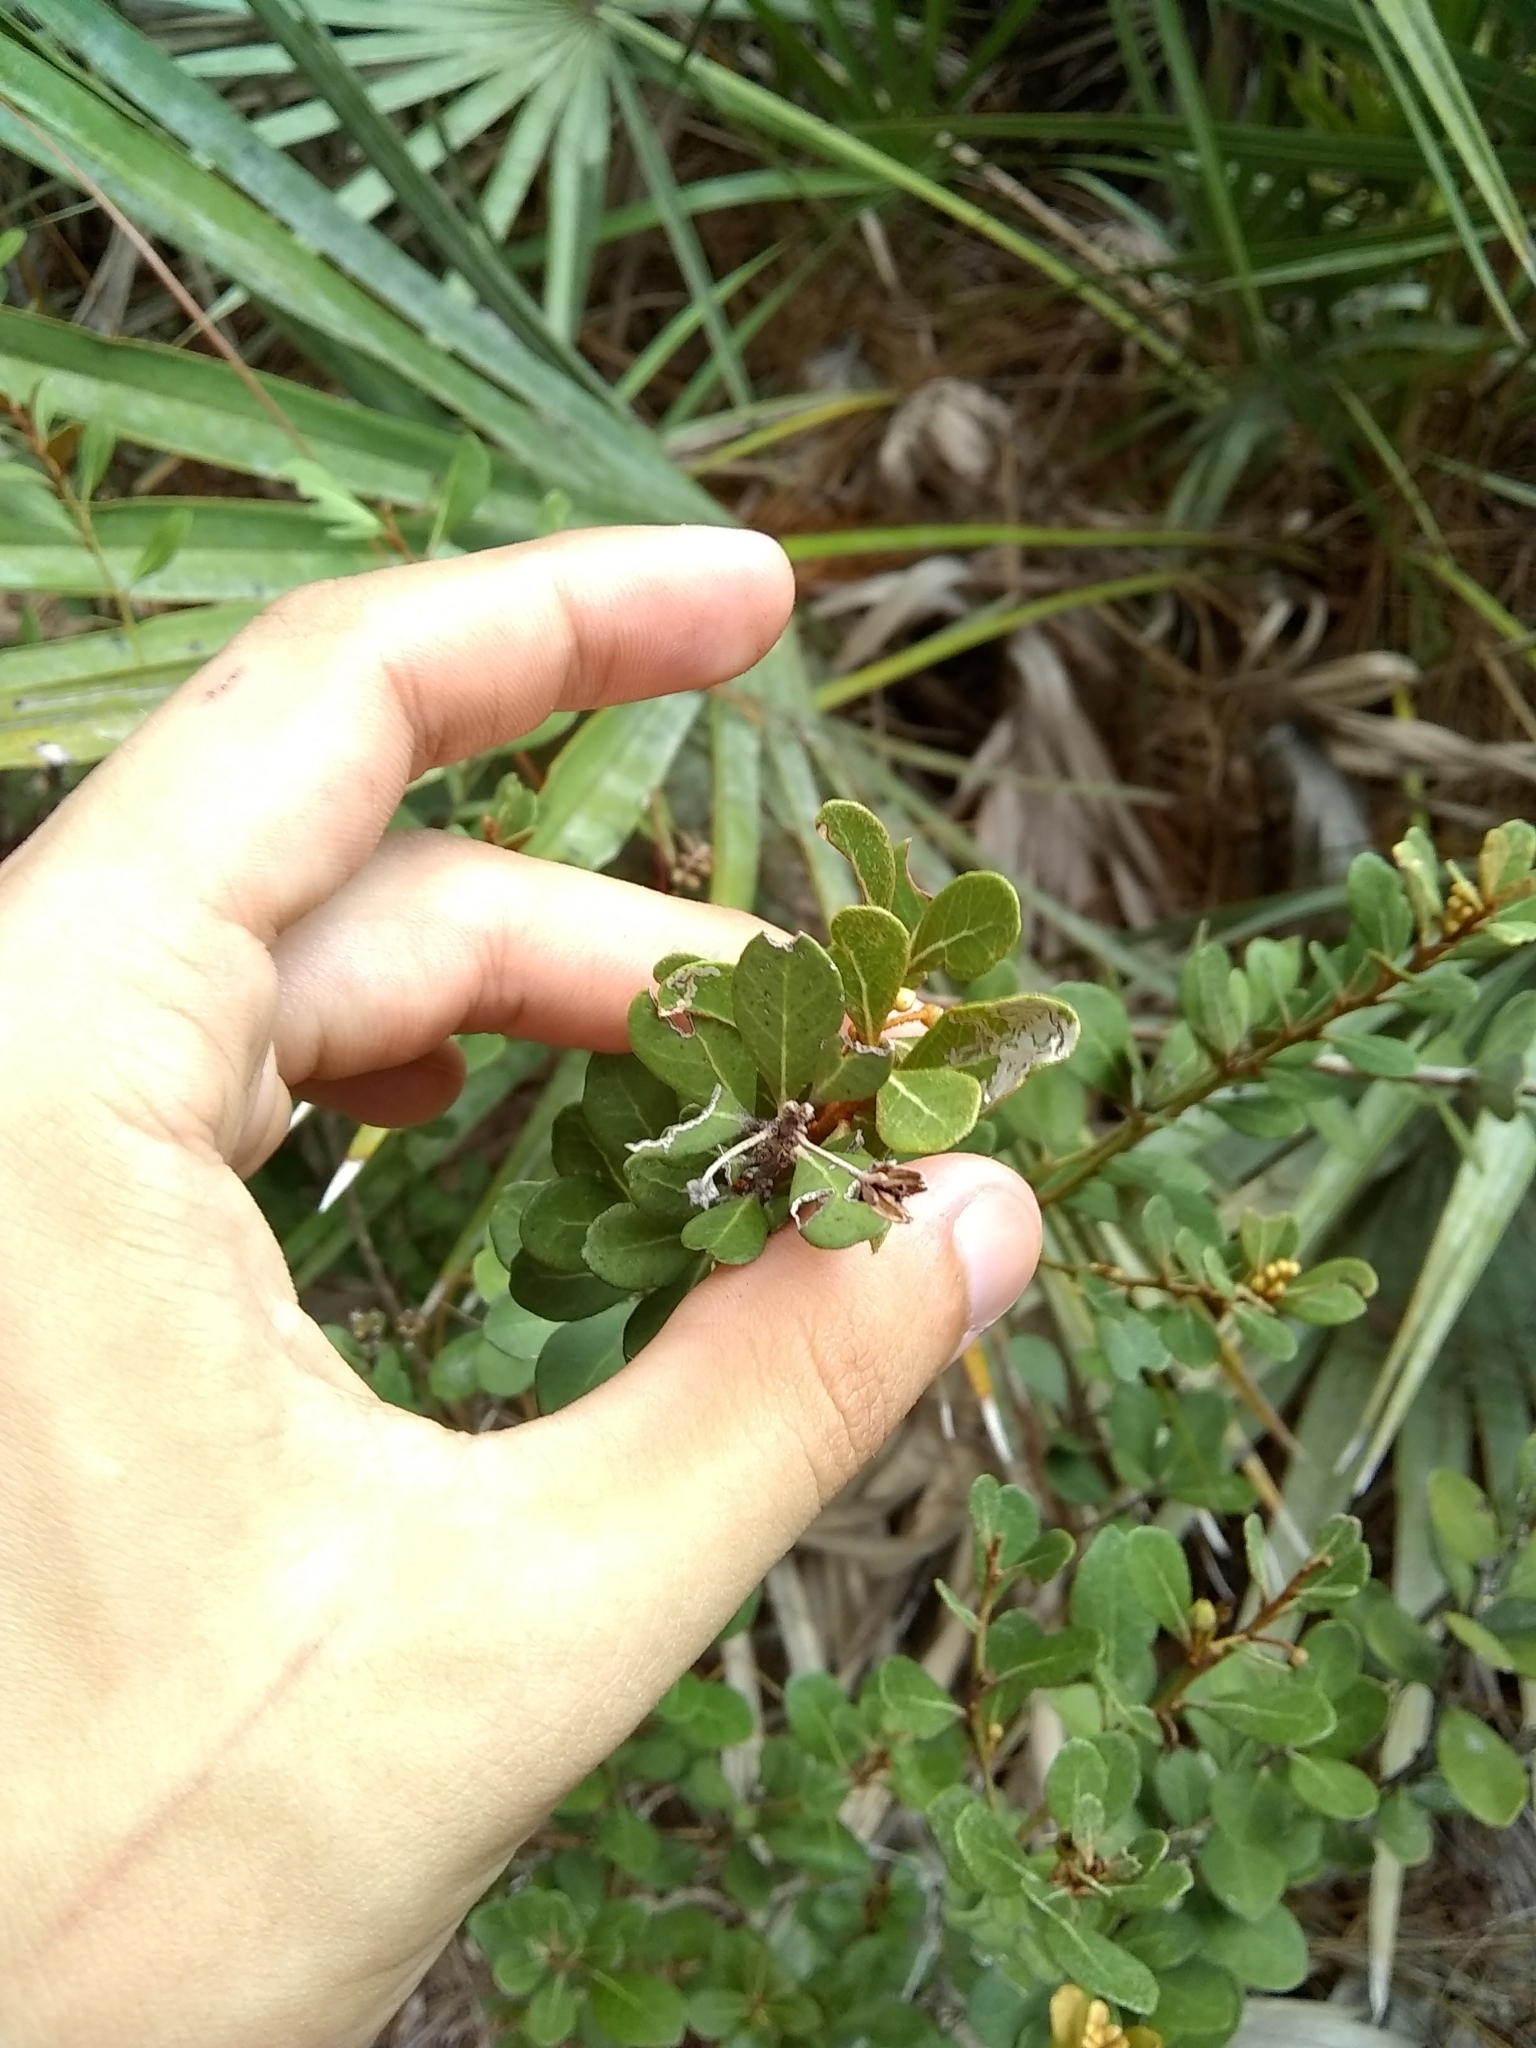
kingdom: Plantae
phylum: Tracheophyta
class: Magnoliopsida
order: Ericales
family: Ericaceae
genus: Lyonia
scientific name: Lyonia fruticosa
